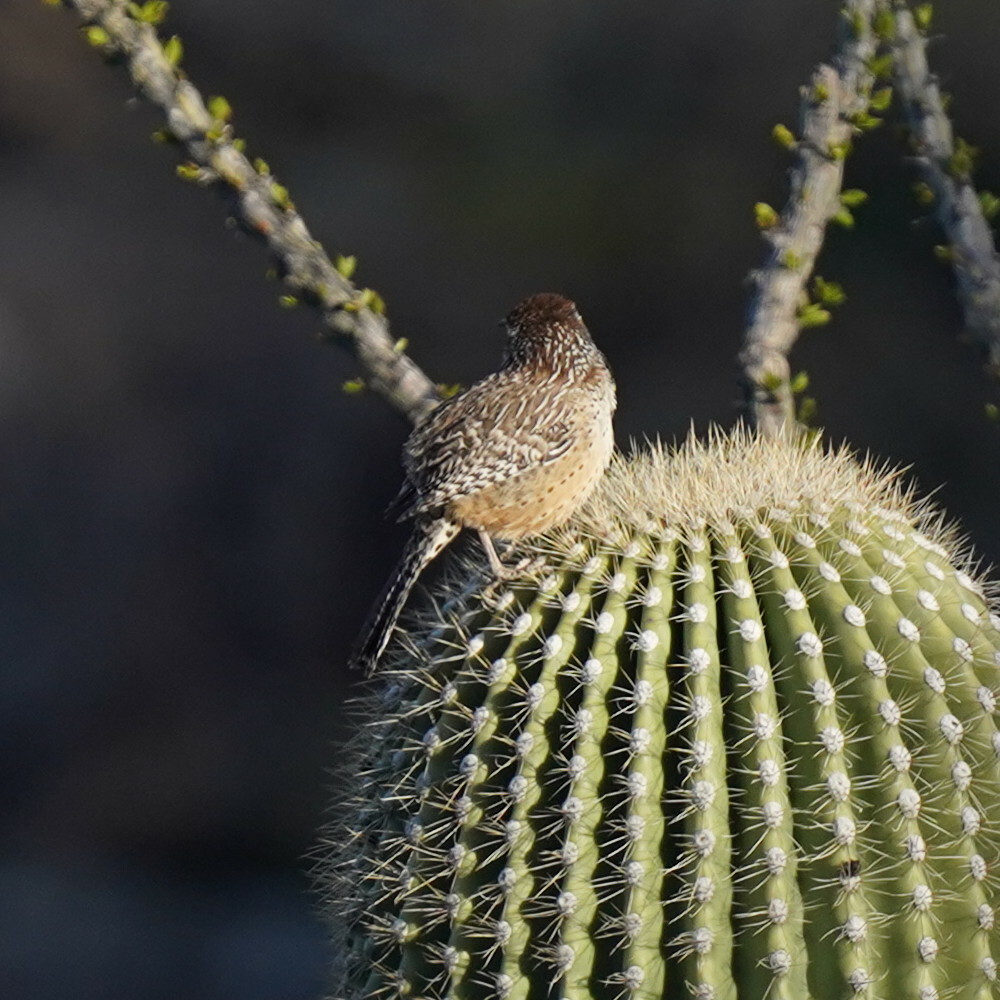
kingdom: Animalia
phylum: Chordata
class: Aves
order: Passeriformes
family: Troglodytidae
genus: Campylorhynchus
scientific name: Campylorhynchus brunneicapillus
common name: Cactus wren
